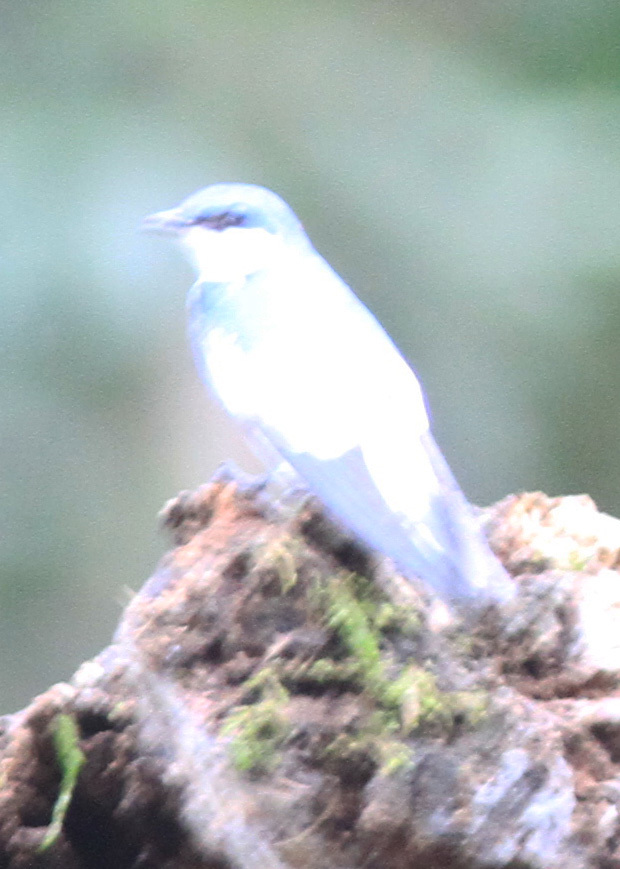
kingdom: Animalia
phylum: Chordata
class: Aves
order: Passeriformes
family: Hirundinidae
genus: Tachycineta
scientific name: Tachycineta albiventer
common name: White-winged swallow
